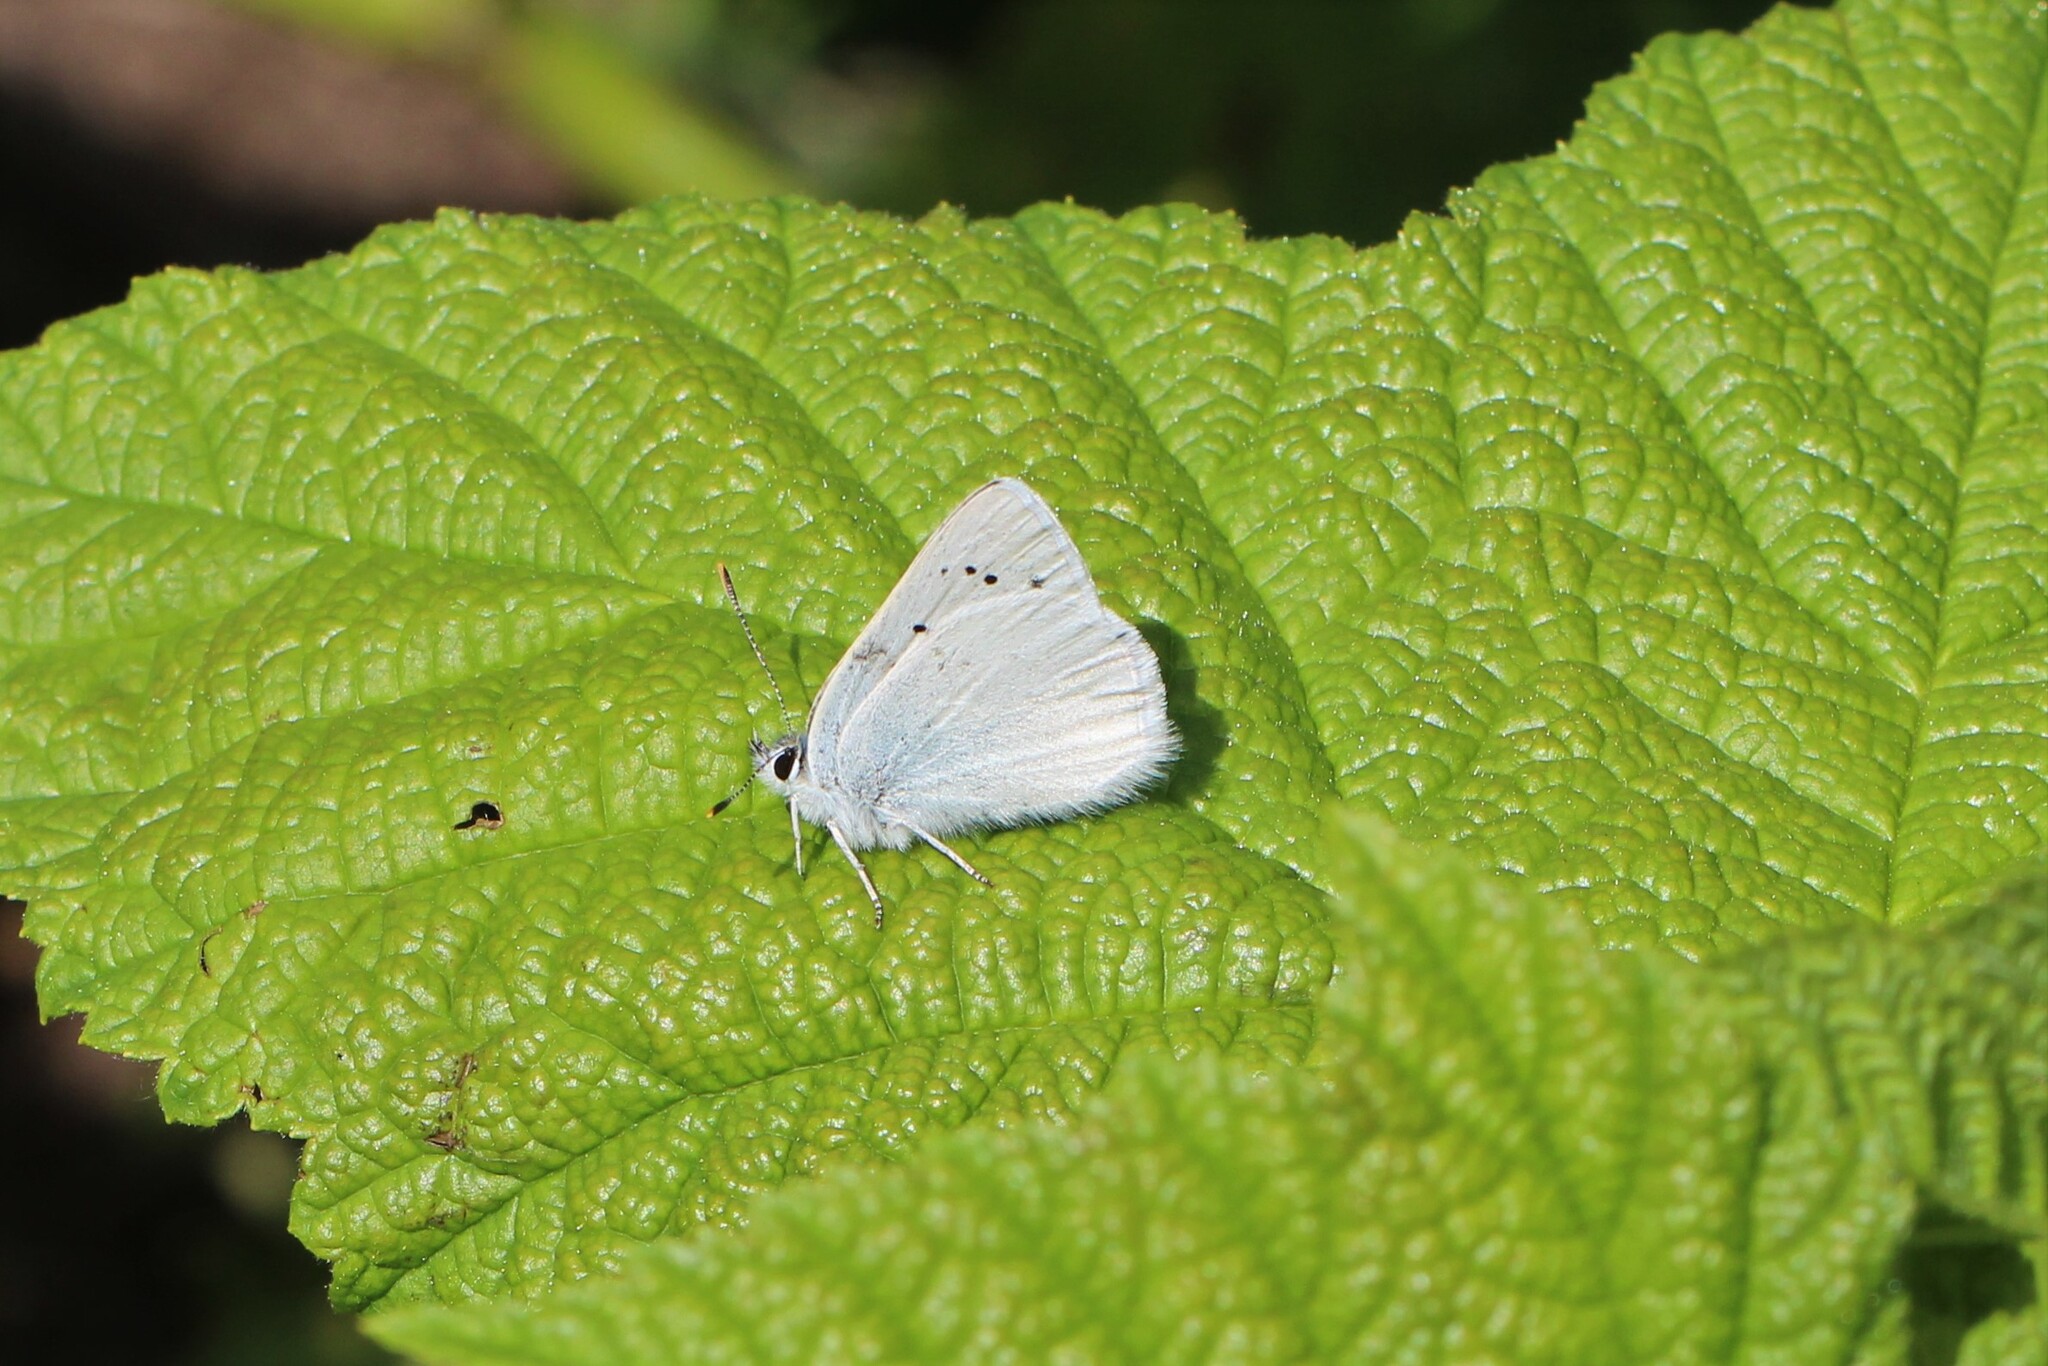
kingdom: Animalia
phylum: Arthropoda
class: Insecta
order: Lepidoptera
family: Lycaenidae
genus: Tharsalea
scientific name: Tharsalea heteronea
